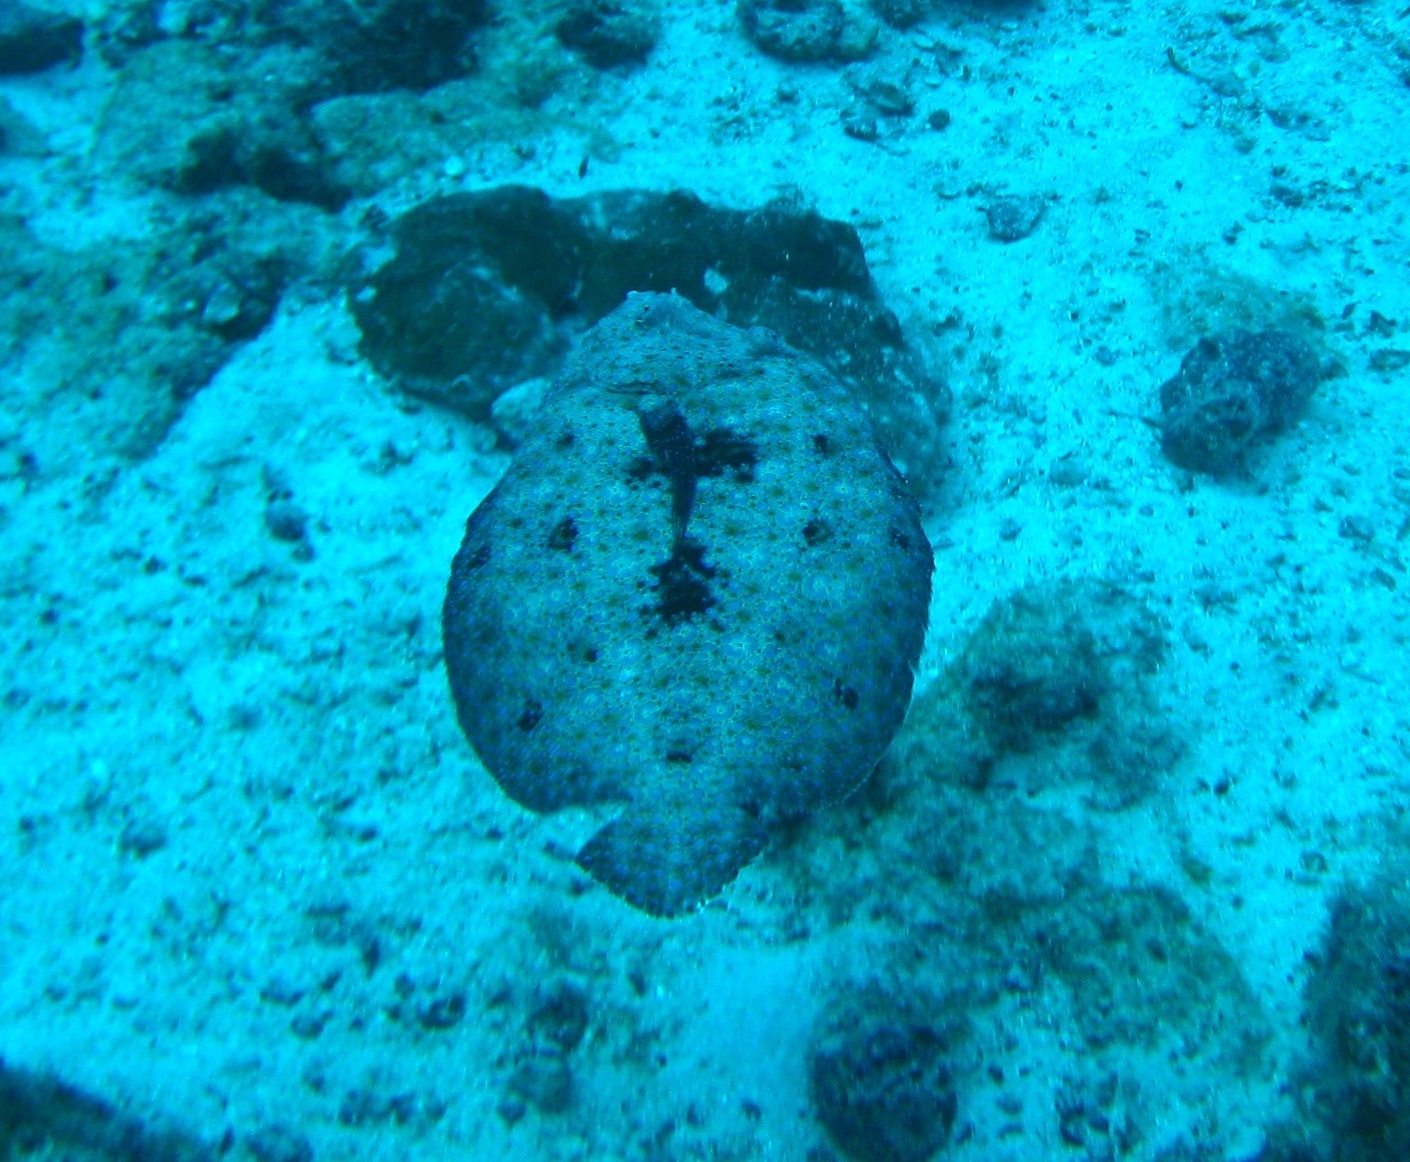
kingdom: Animalia
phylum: Chordata
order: Pleuronectiformes
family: Bothidae
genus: Bothus
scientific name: Bothus mancus
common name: Flowery flounder
